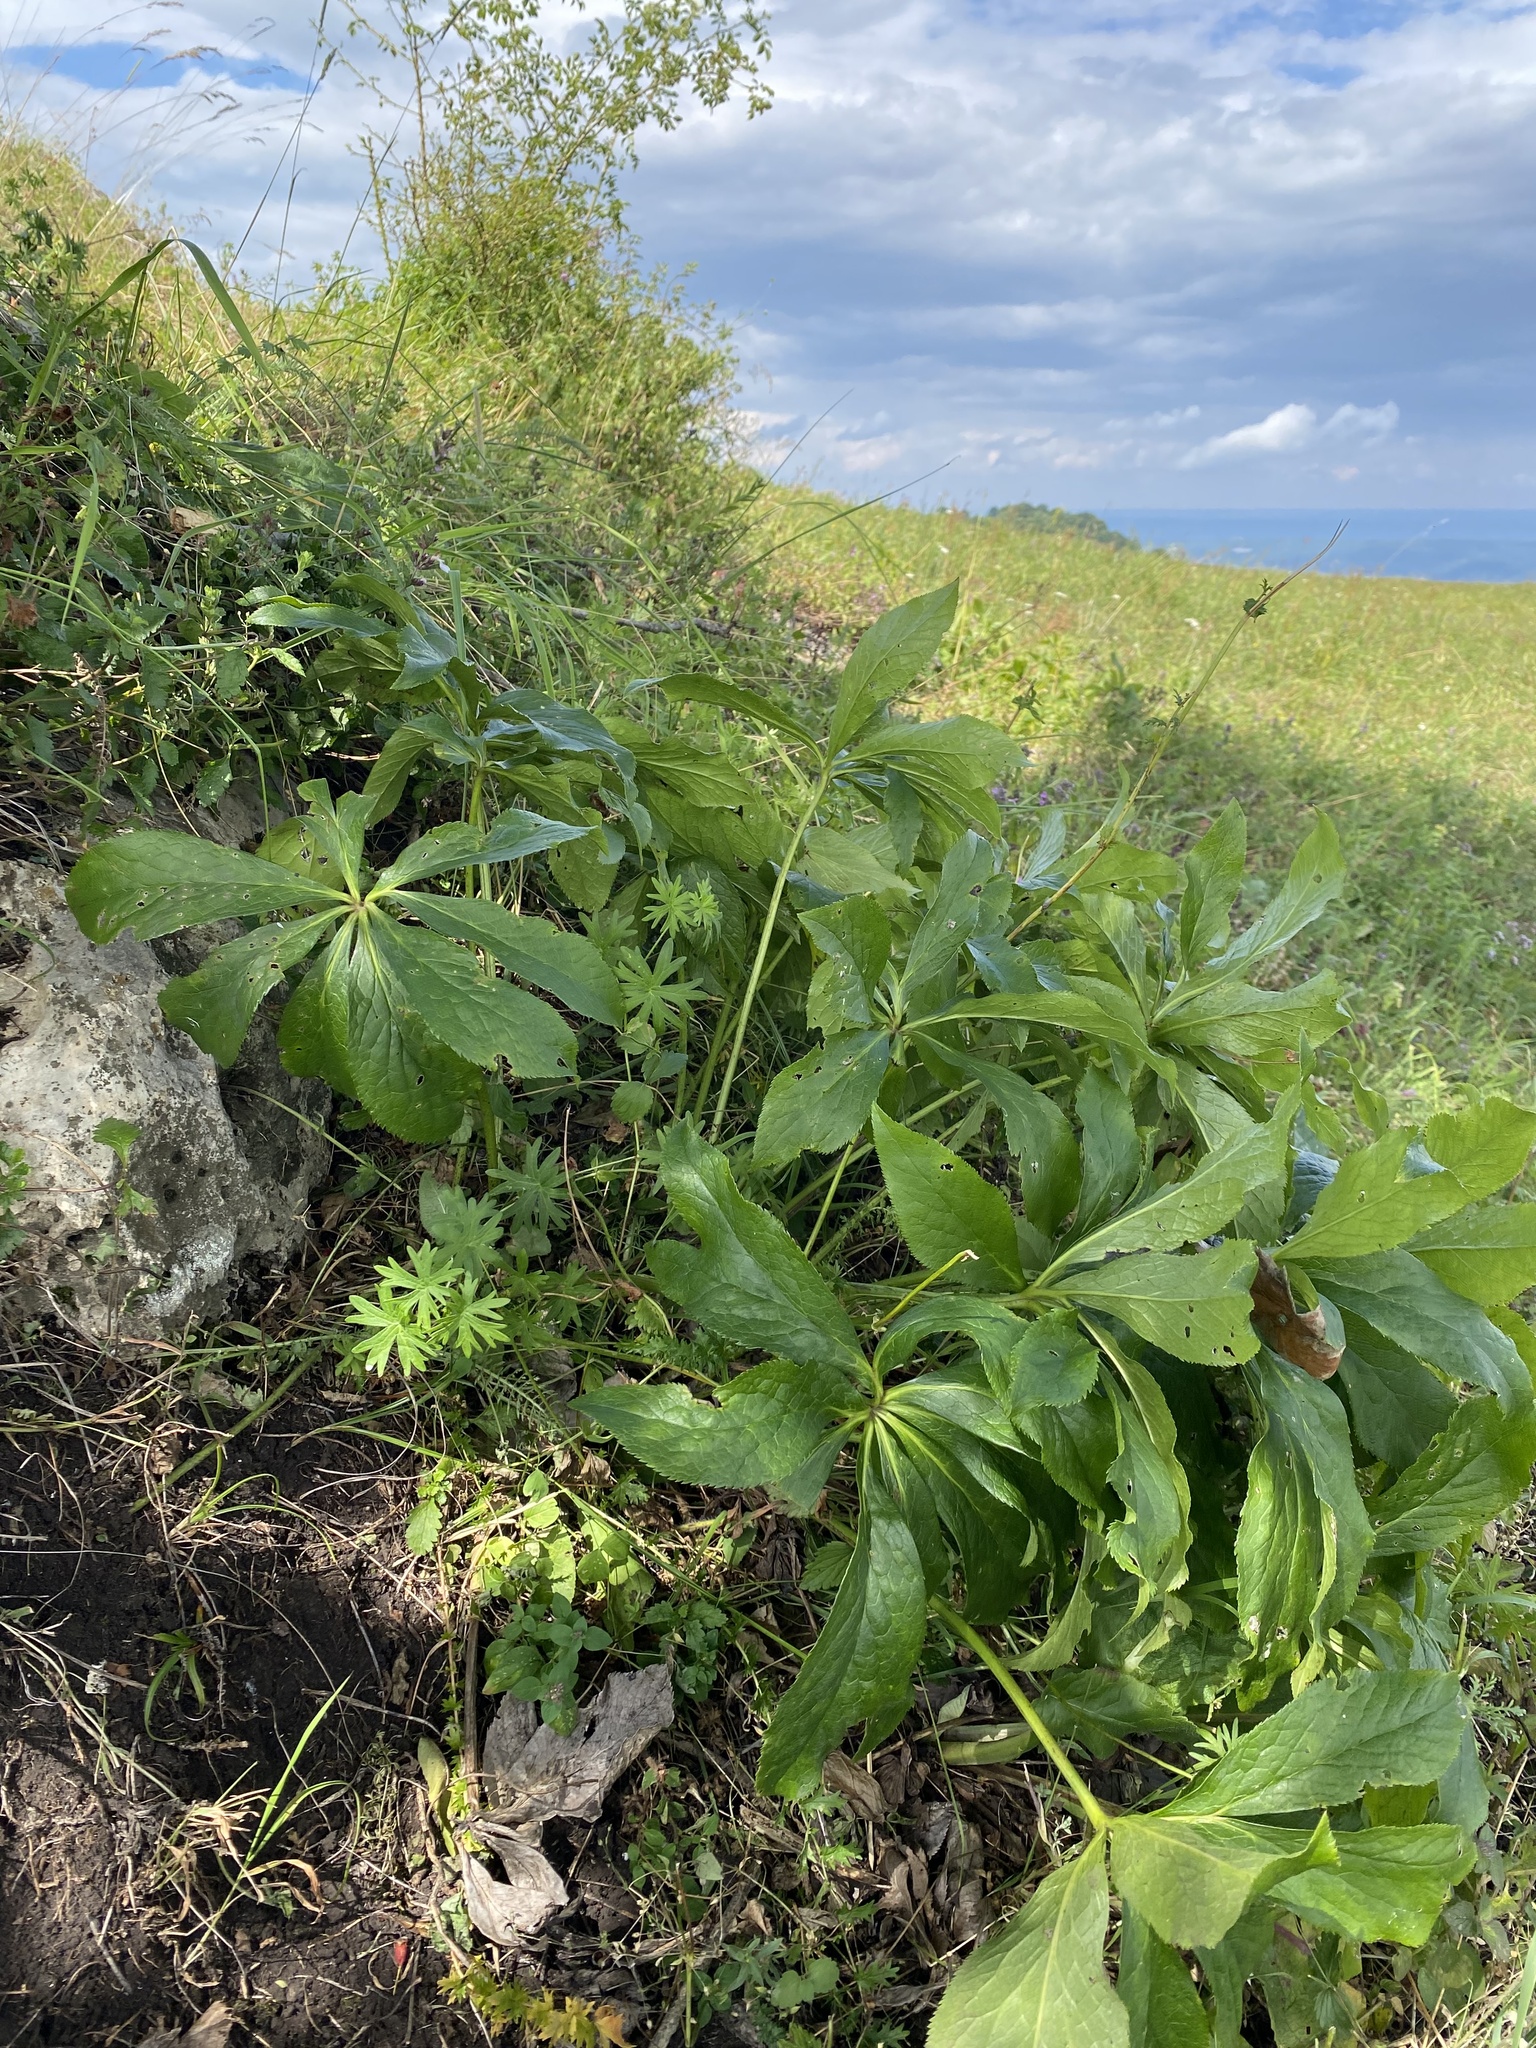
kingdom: Plantae
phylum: Tracheophyta
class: Magnoliopsida
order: Ranunculales
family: Ranunculaceae
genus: Helleborus
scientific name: Helleborus orientalis
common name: Lenten-rose
